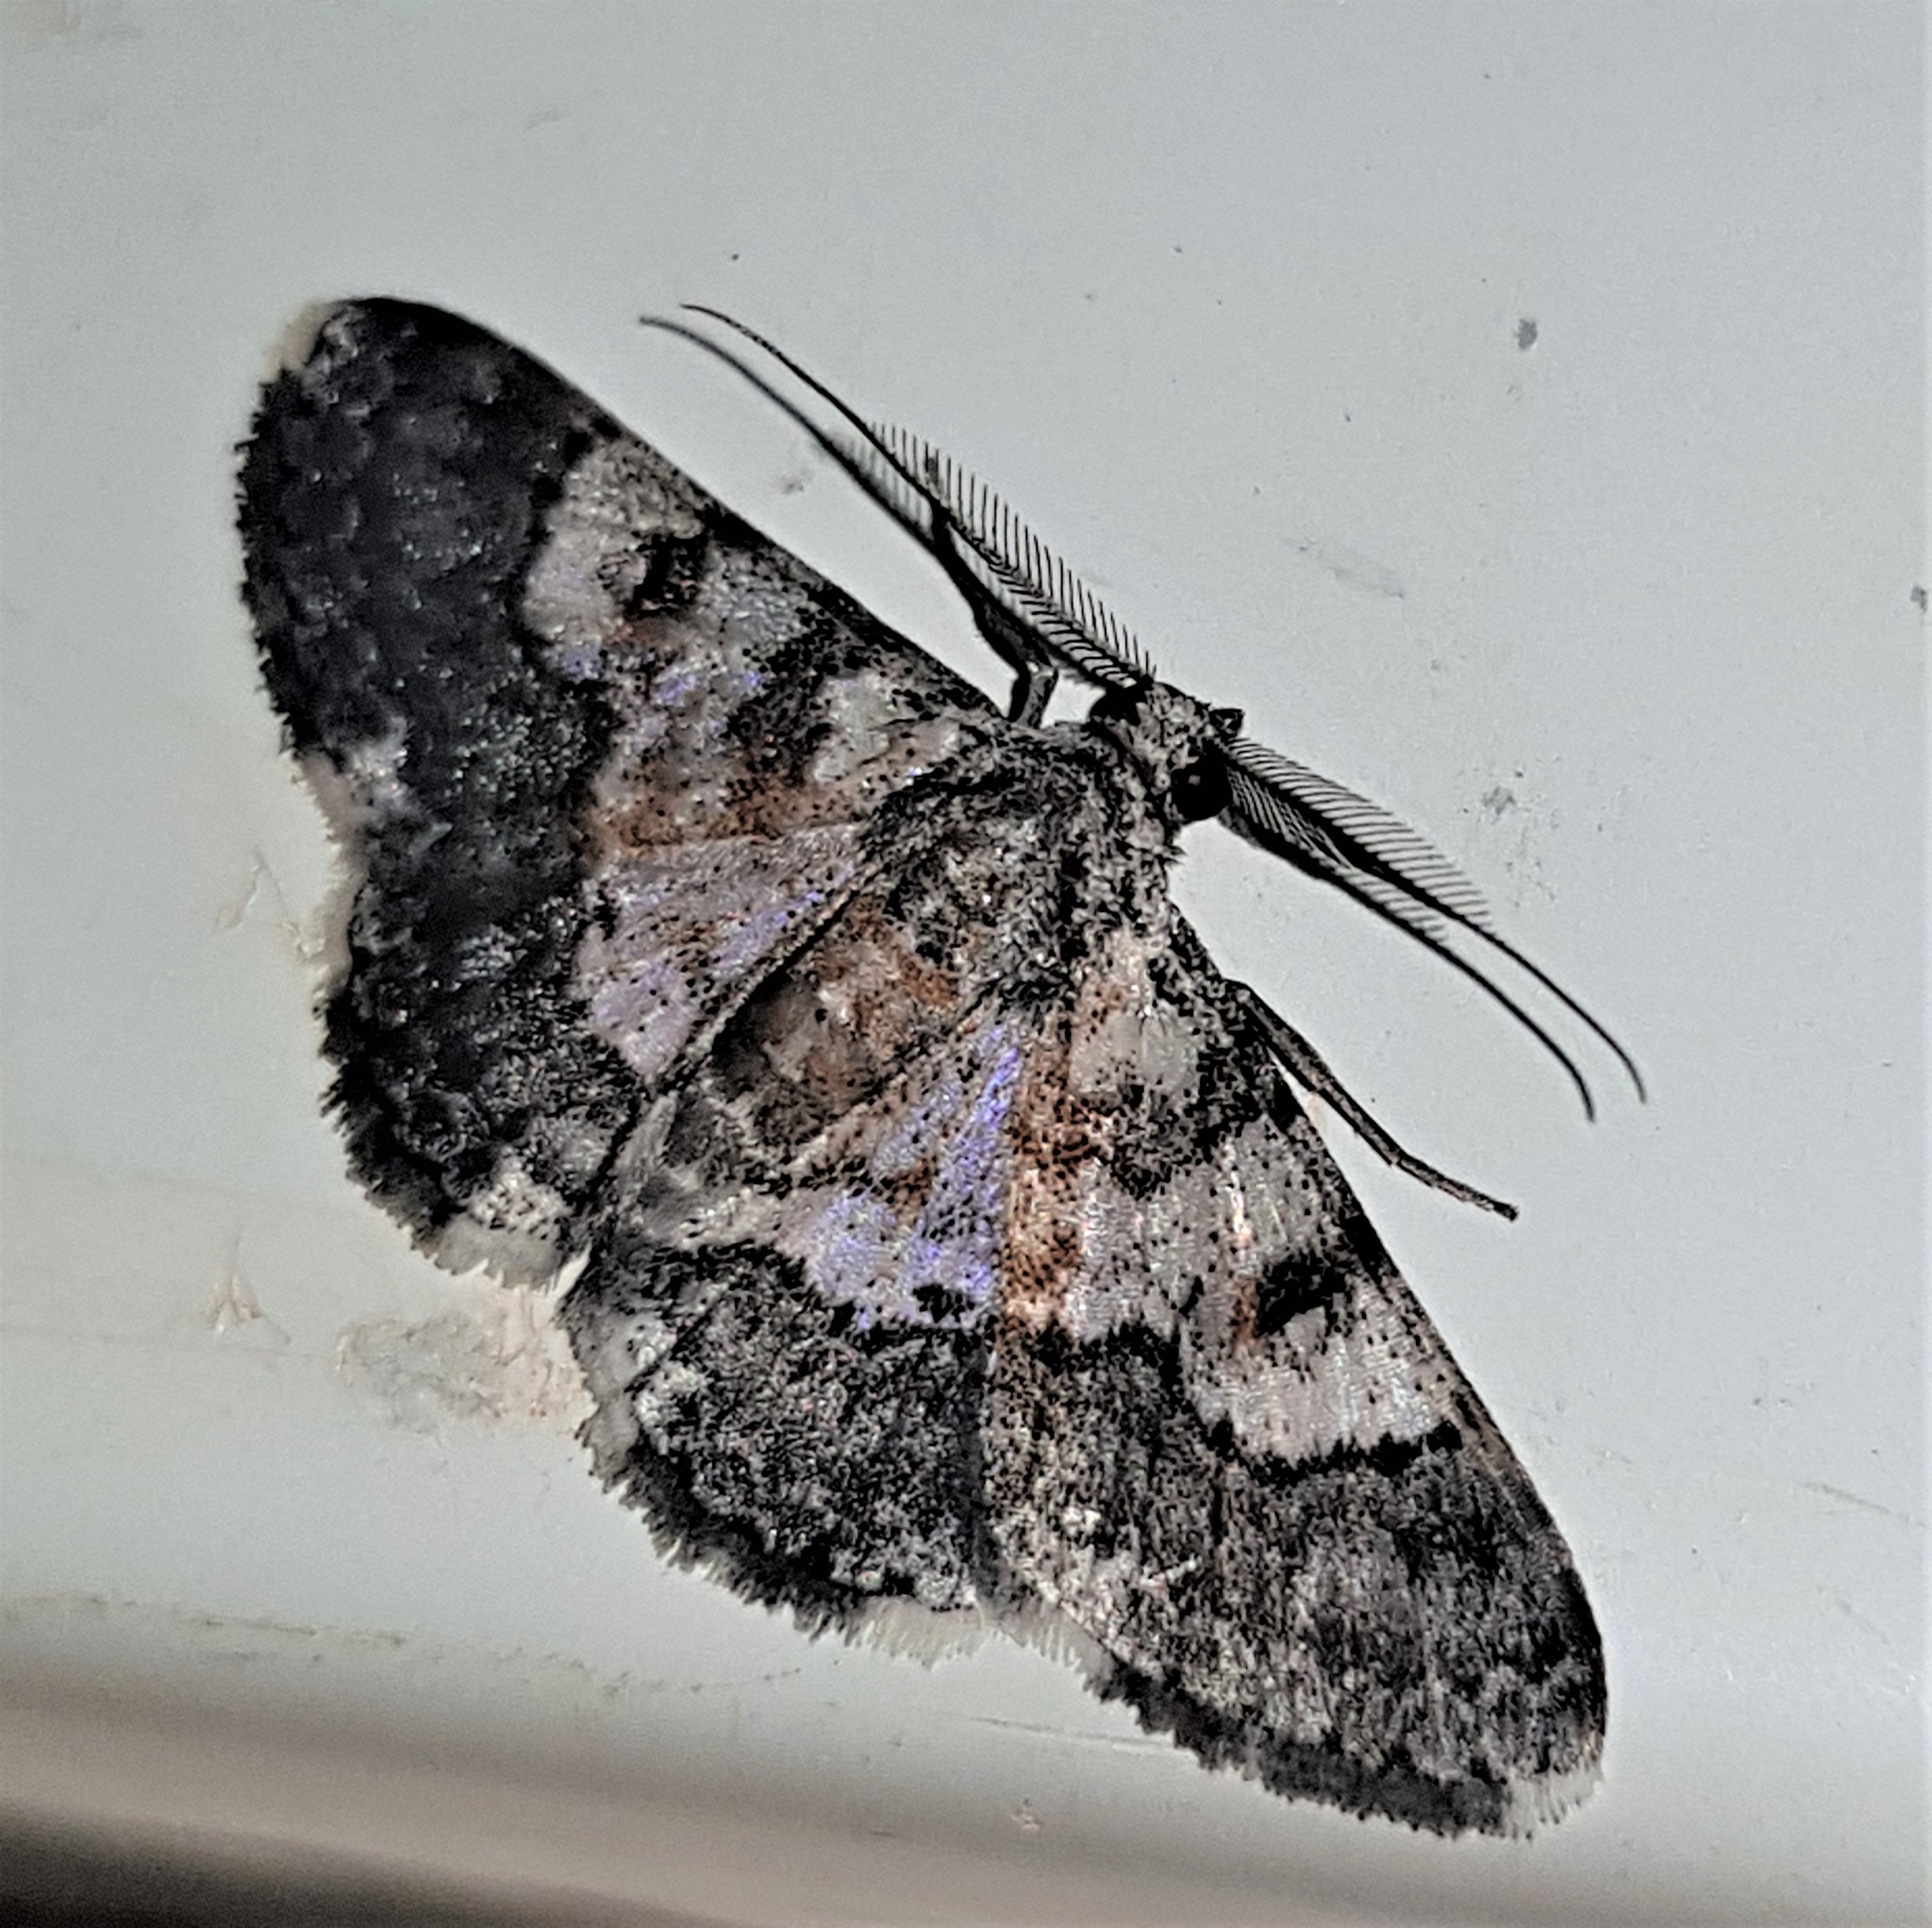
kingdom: Animalia
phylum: Arthropoda
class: Insecta
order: Lepidoptera
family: Geometridae
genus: Hymenomima
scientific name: Hymenomima semialba
